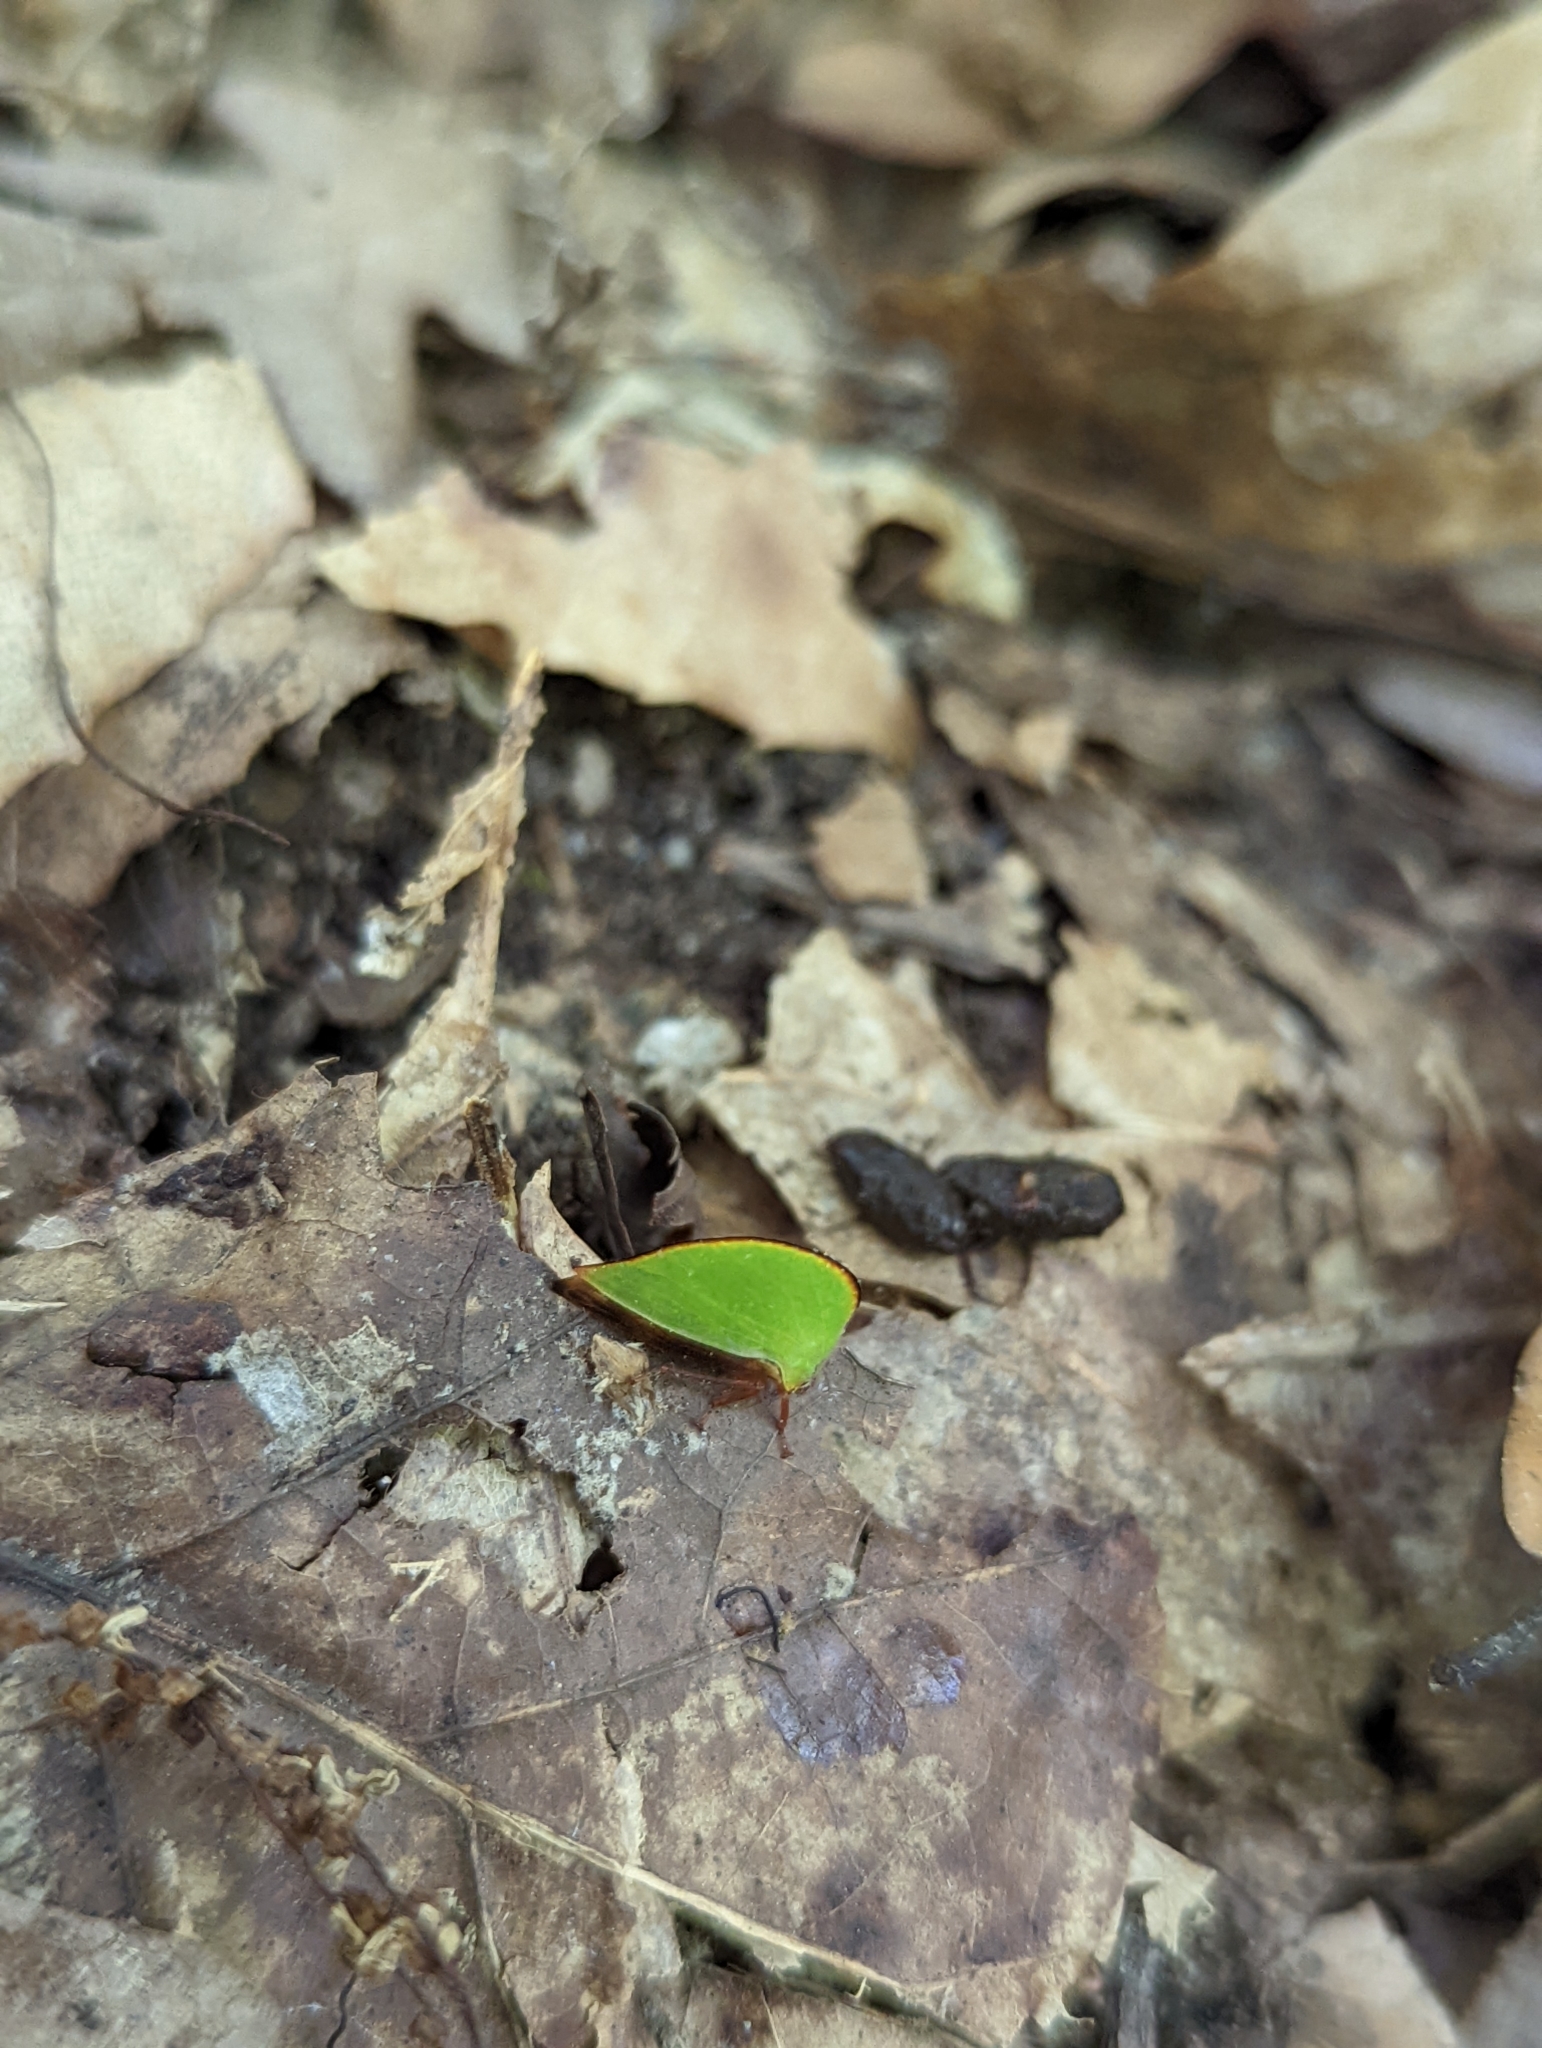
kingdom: Animalia
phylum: Arthropoda
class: Insecta
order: Hemiptera
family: Membracidae
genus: Archasia
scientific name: Archasia belfragei
